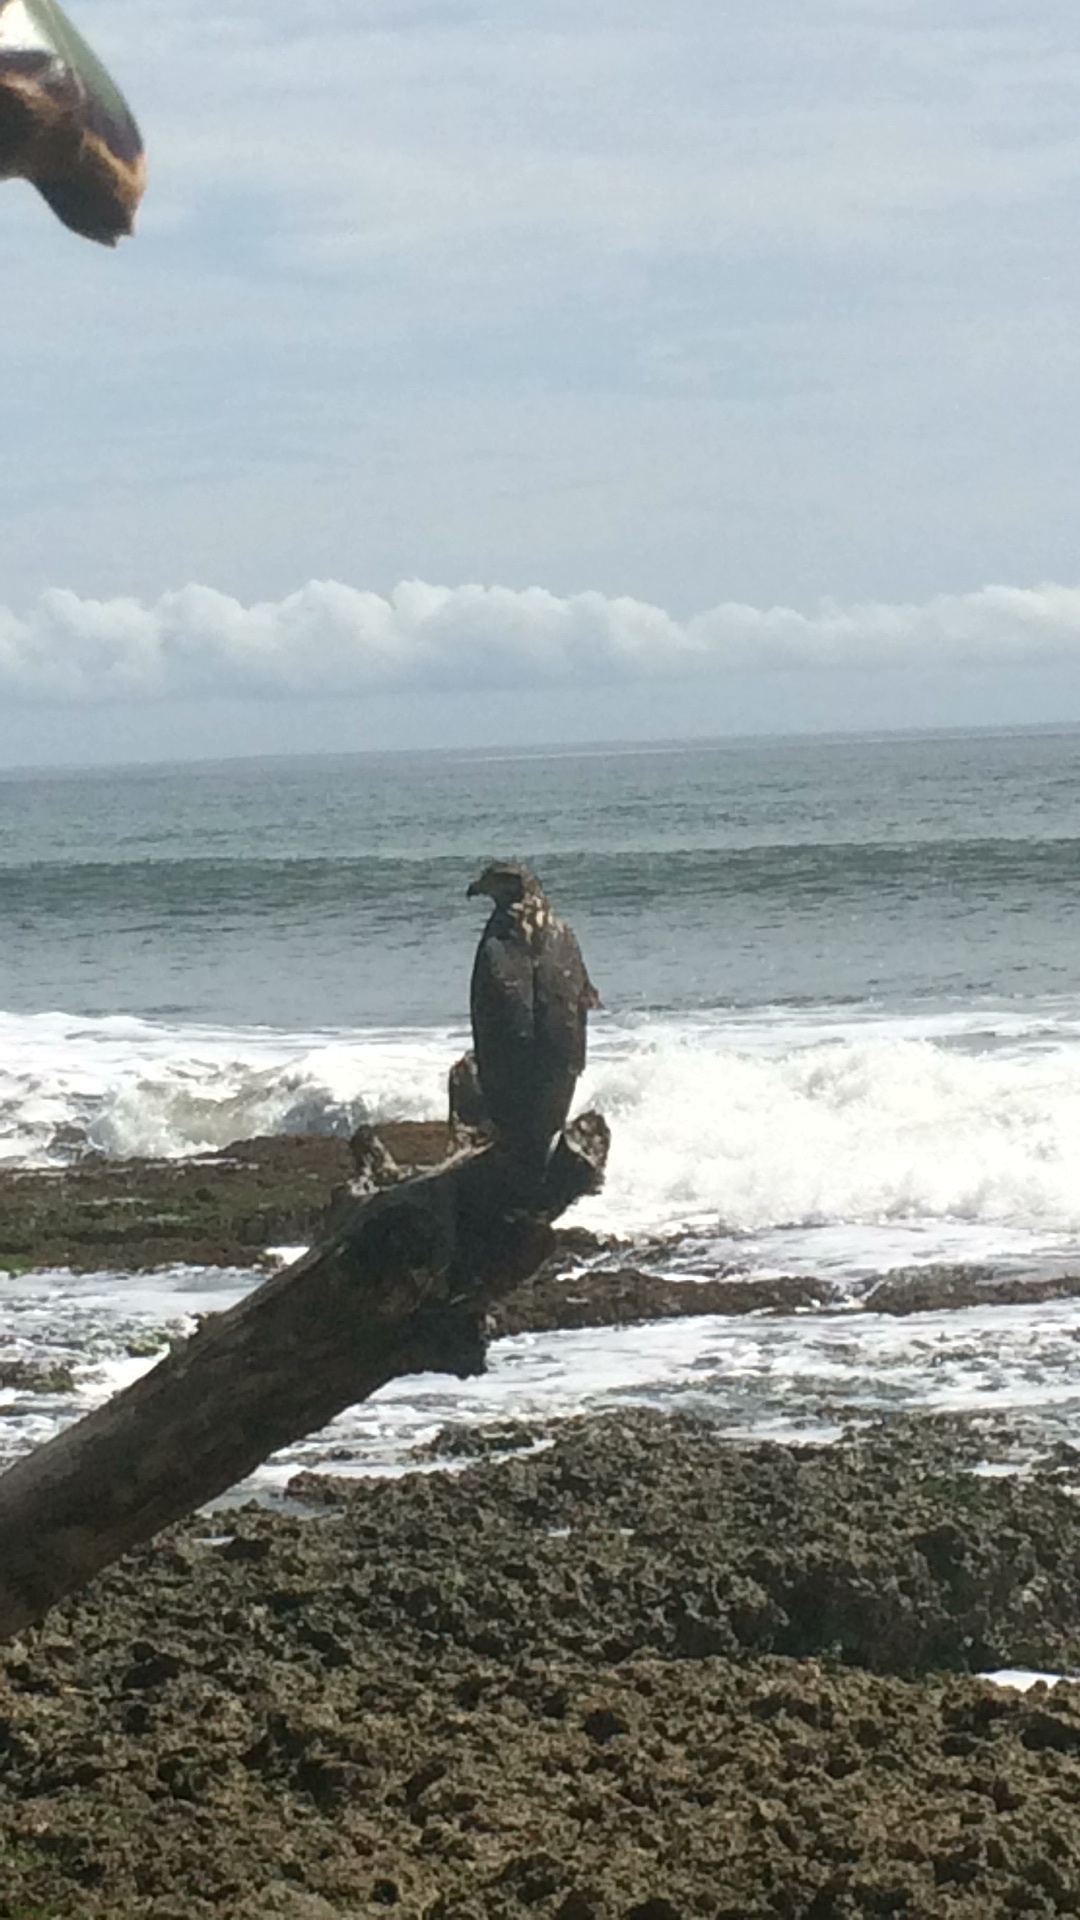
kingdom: Animalia
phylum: Chordata
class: Aves
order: Accipitriformes
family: Accipitridae
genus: Buteogallus
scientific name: Buteogallus anthracinus
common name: Common black hawk
